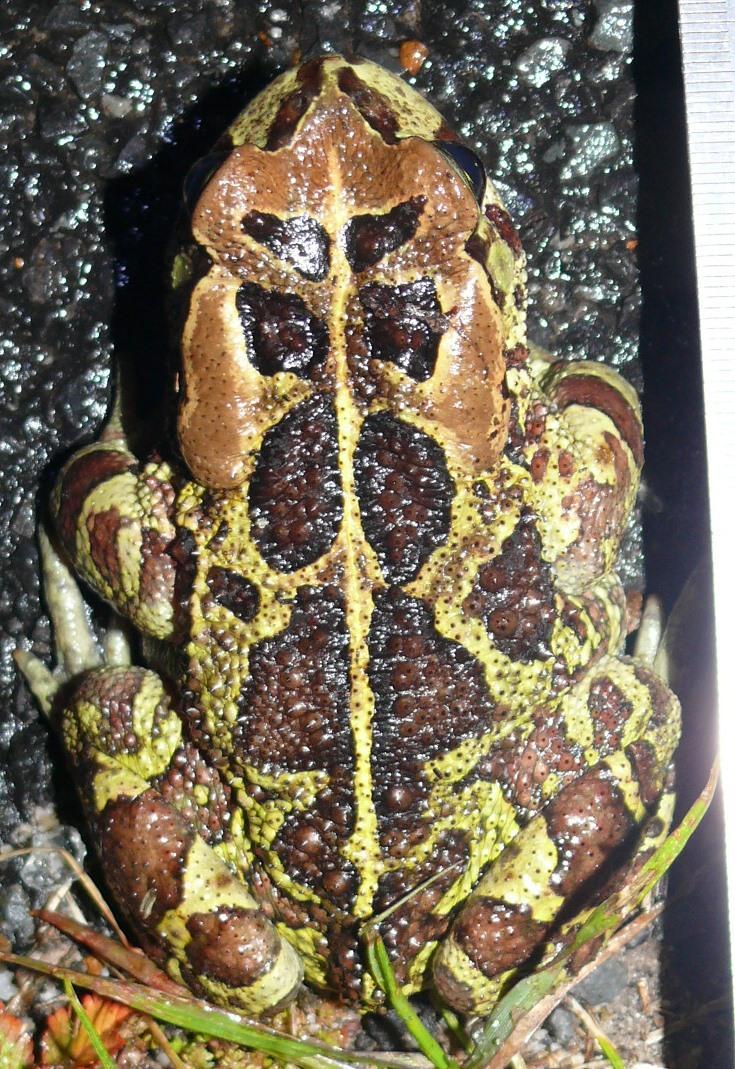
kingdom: Animalia
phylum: Chordata
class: Amphibia
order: Anura
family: Bufonidae
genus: Sclerophrys
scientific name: Sclerophrys pantherina
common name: Panther toad
